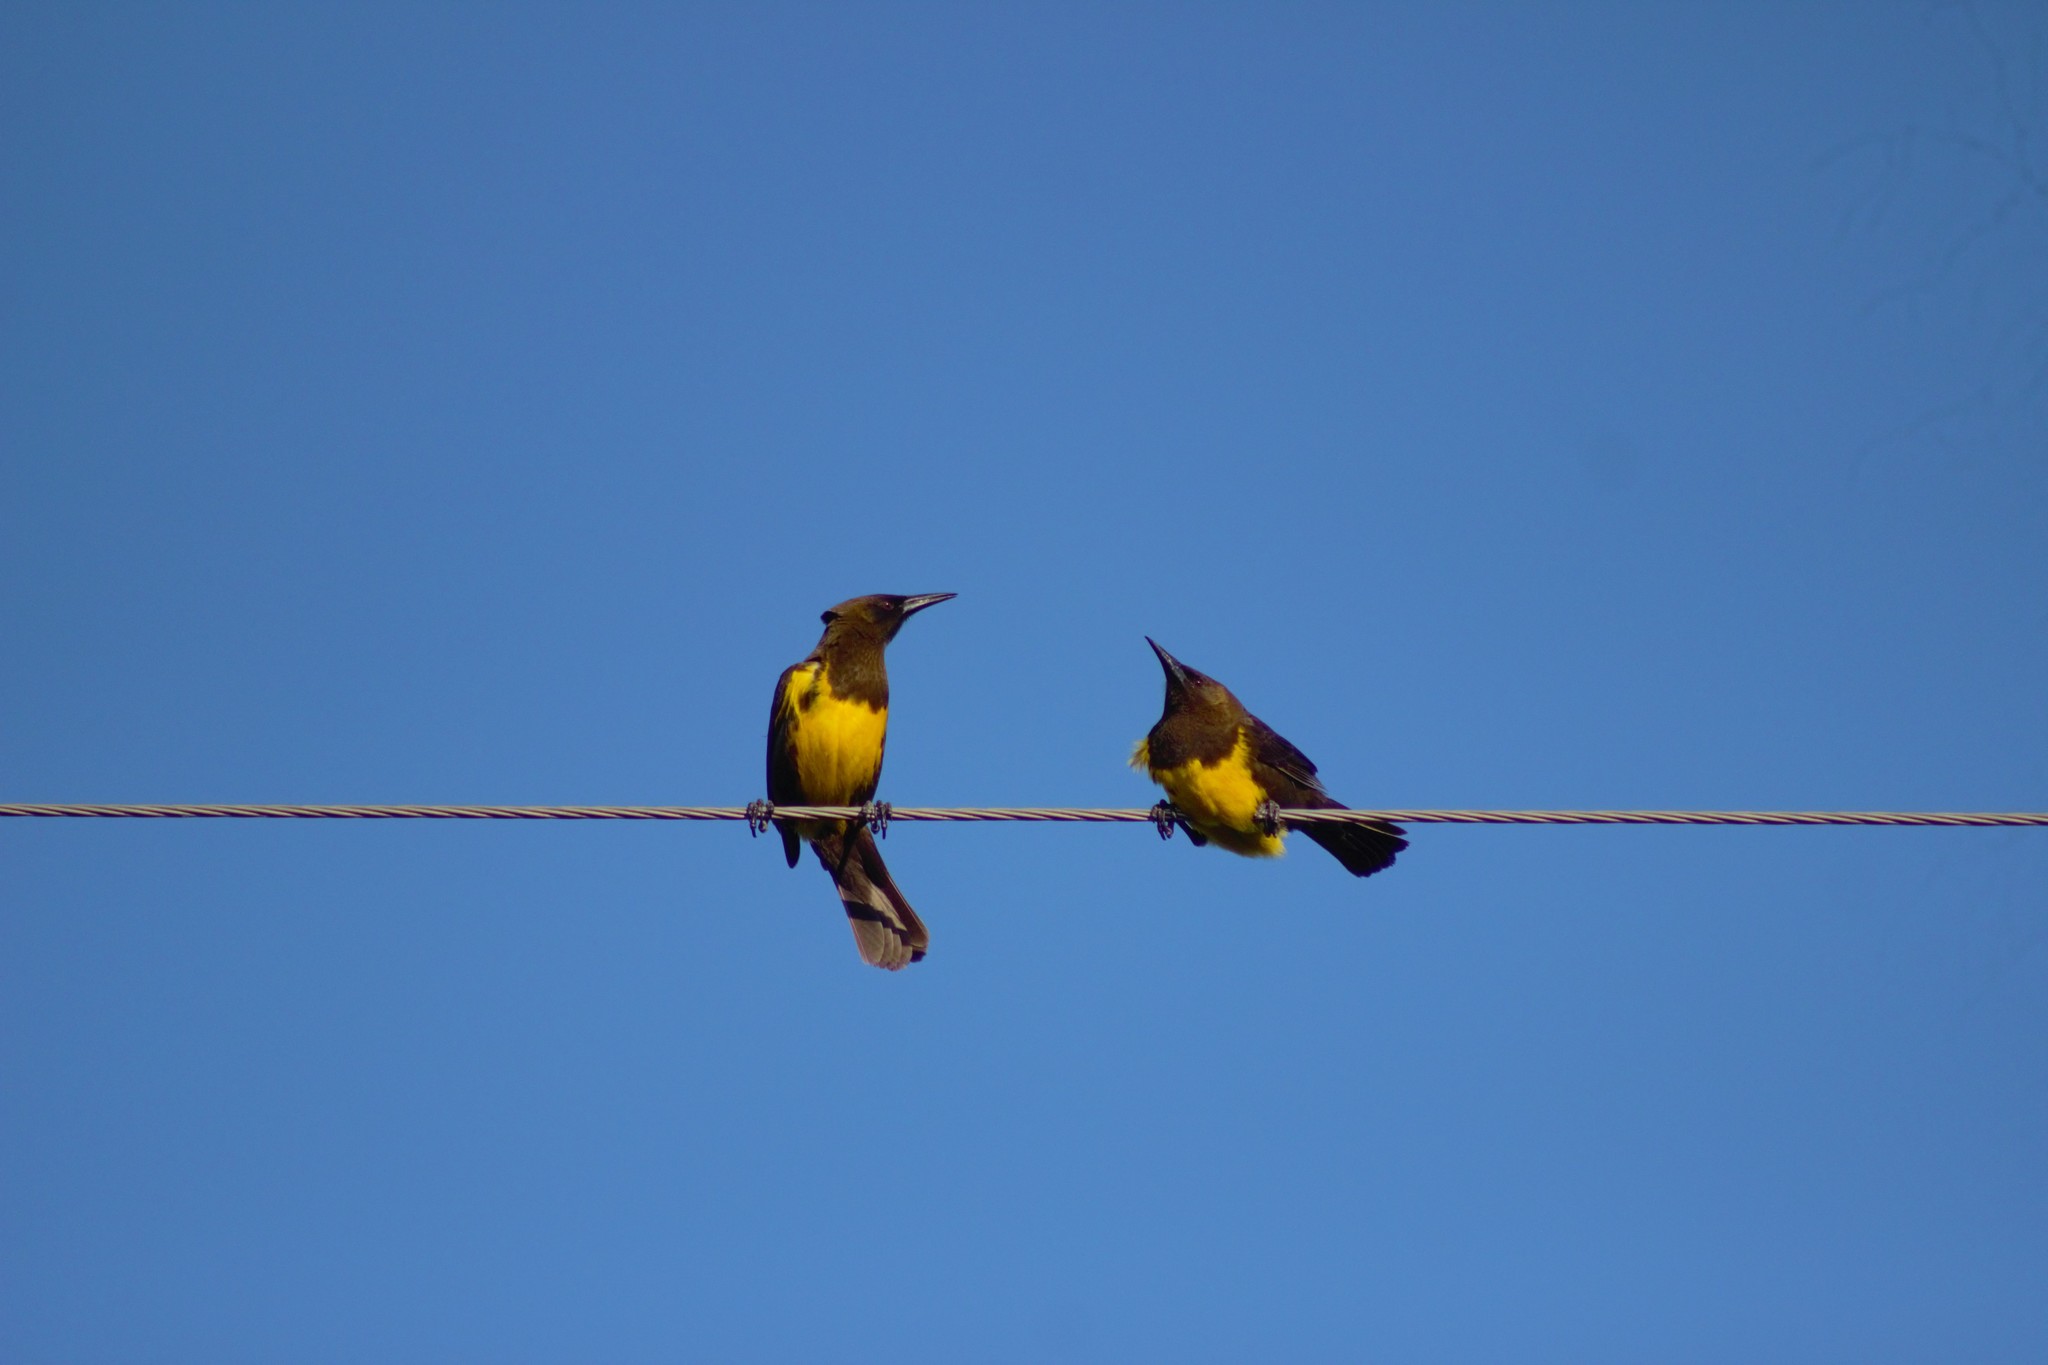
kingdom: Animalia
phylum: Chordata
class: Aves
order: Passeriformes
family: Icteridae
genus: Pseudoleistes
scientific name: Pseudoleistes virescens
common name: Brown-and-yellow marshbird
